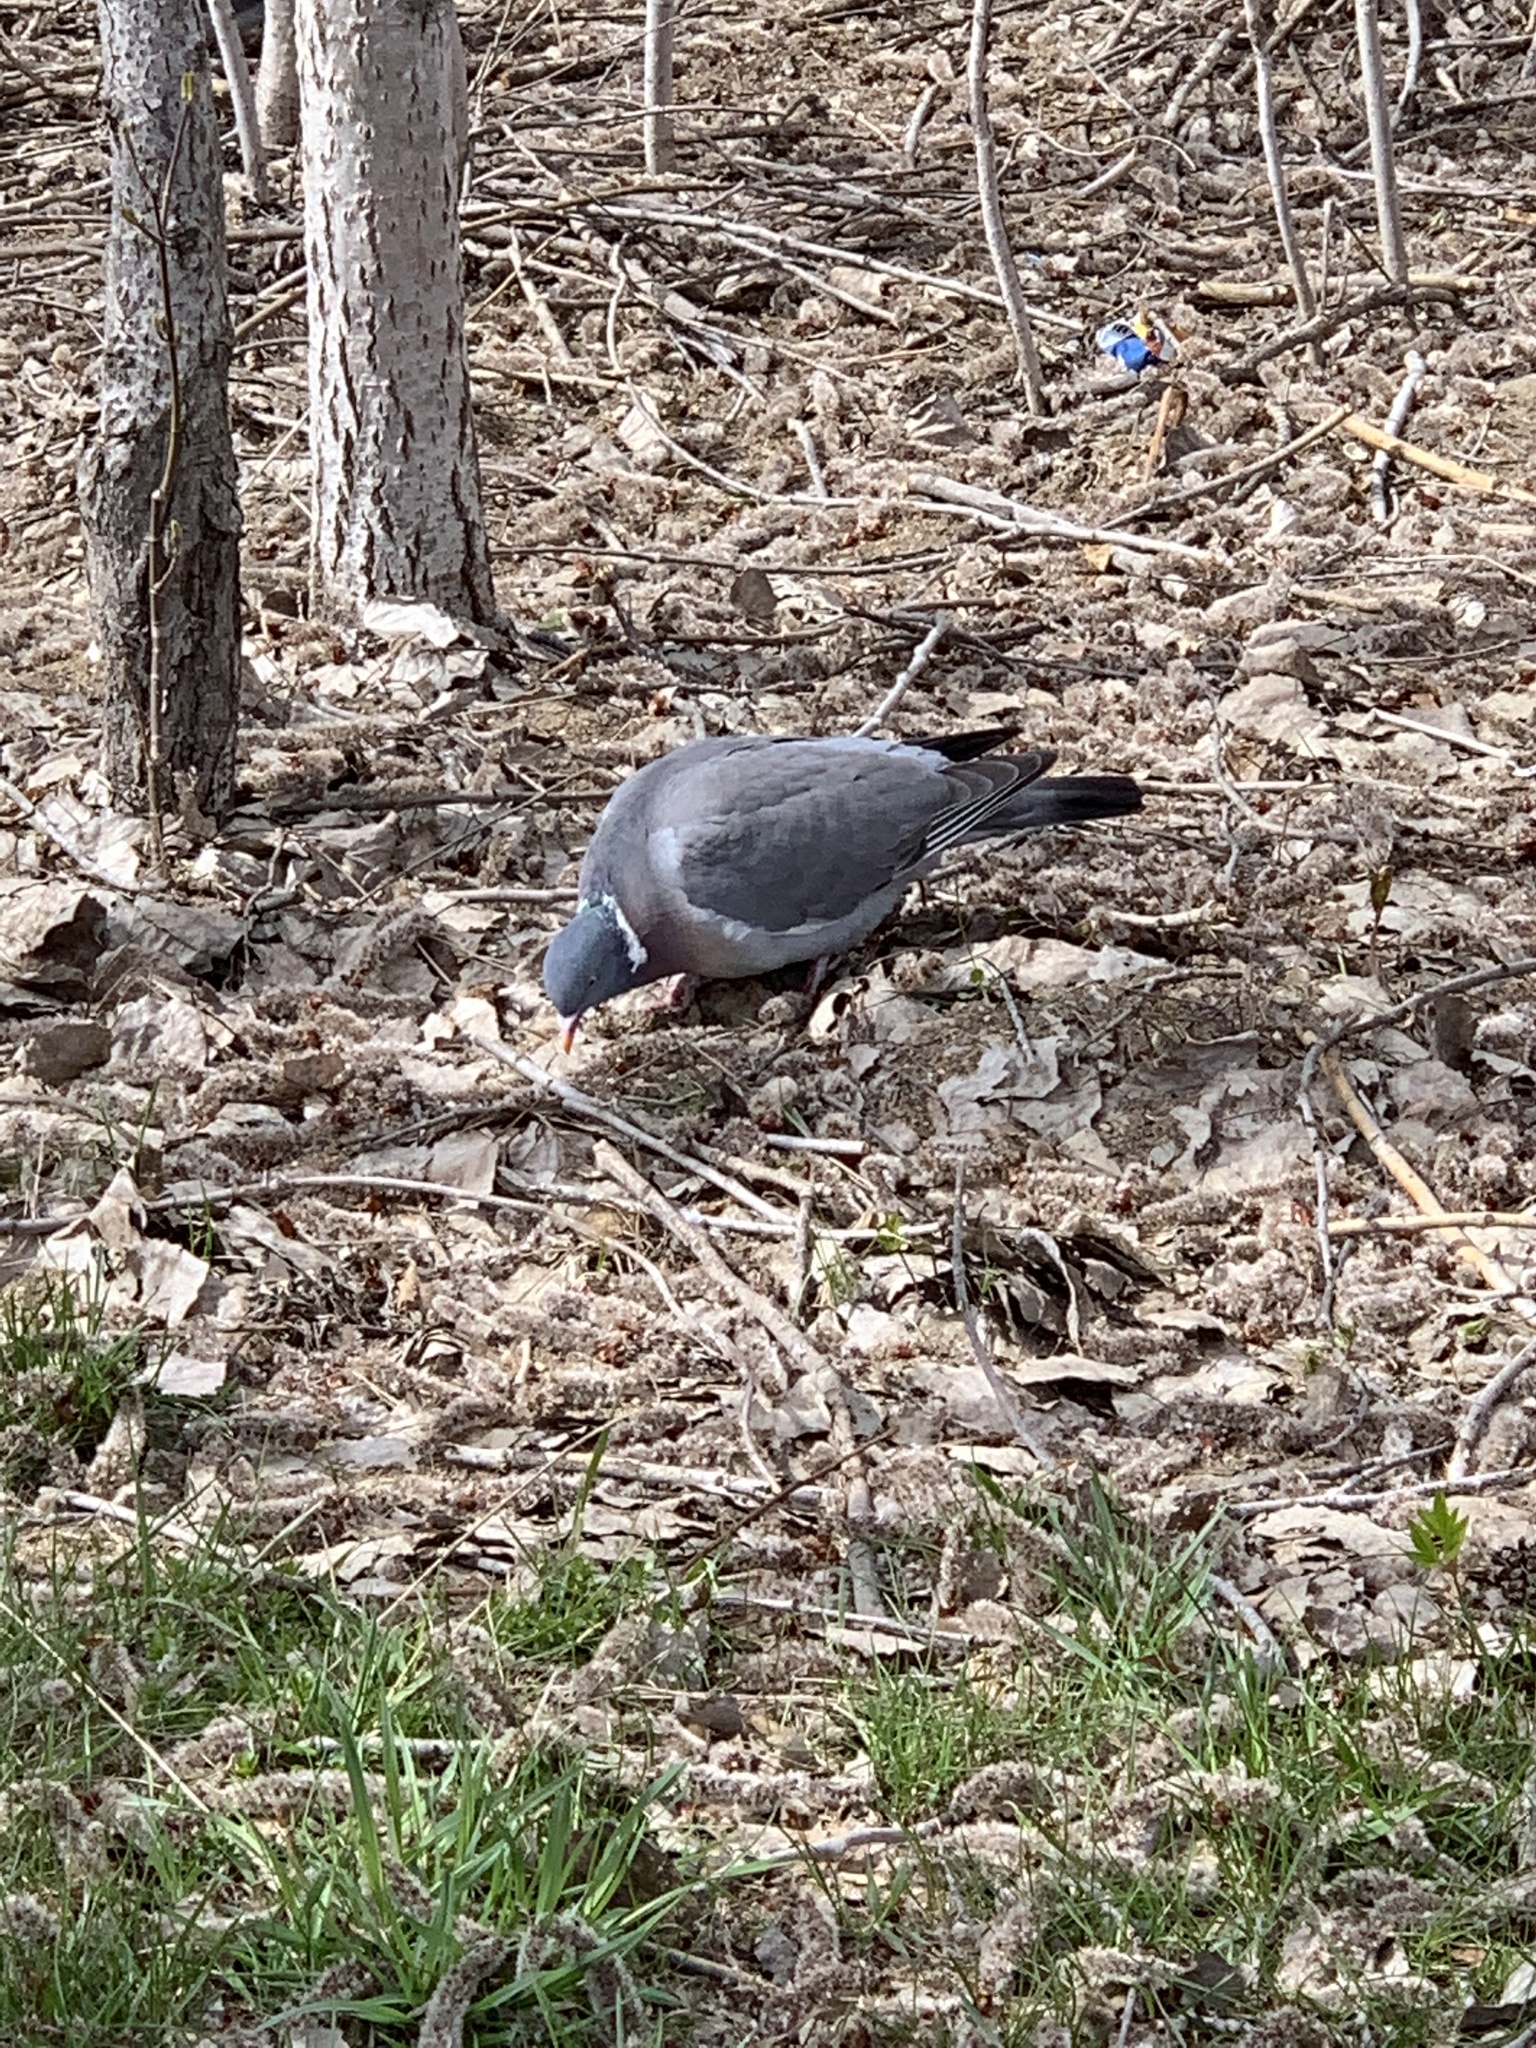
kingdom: Animalia
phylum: Chordata
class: Aves
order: Columbiformes
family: Columbidae
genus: Columba
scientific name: Columba palumbus
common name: Common wood pigeon
